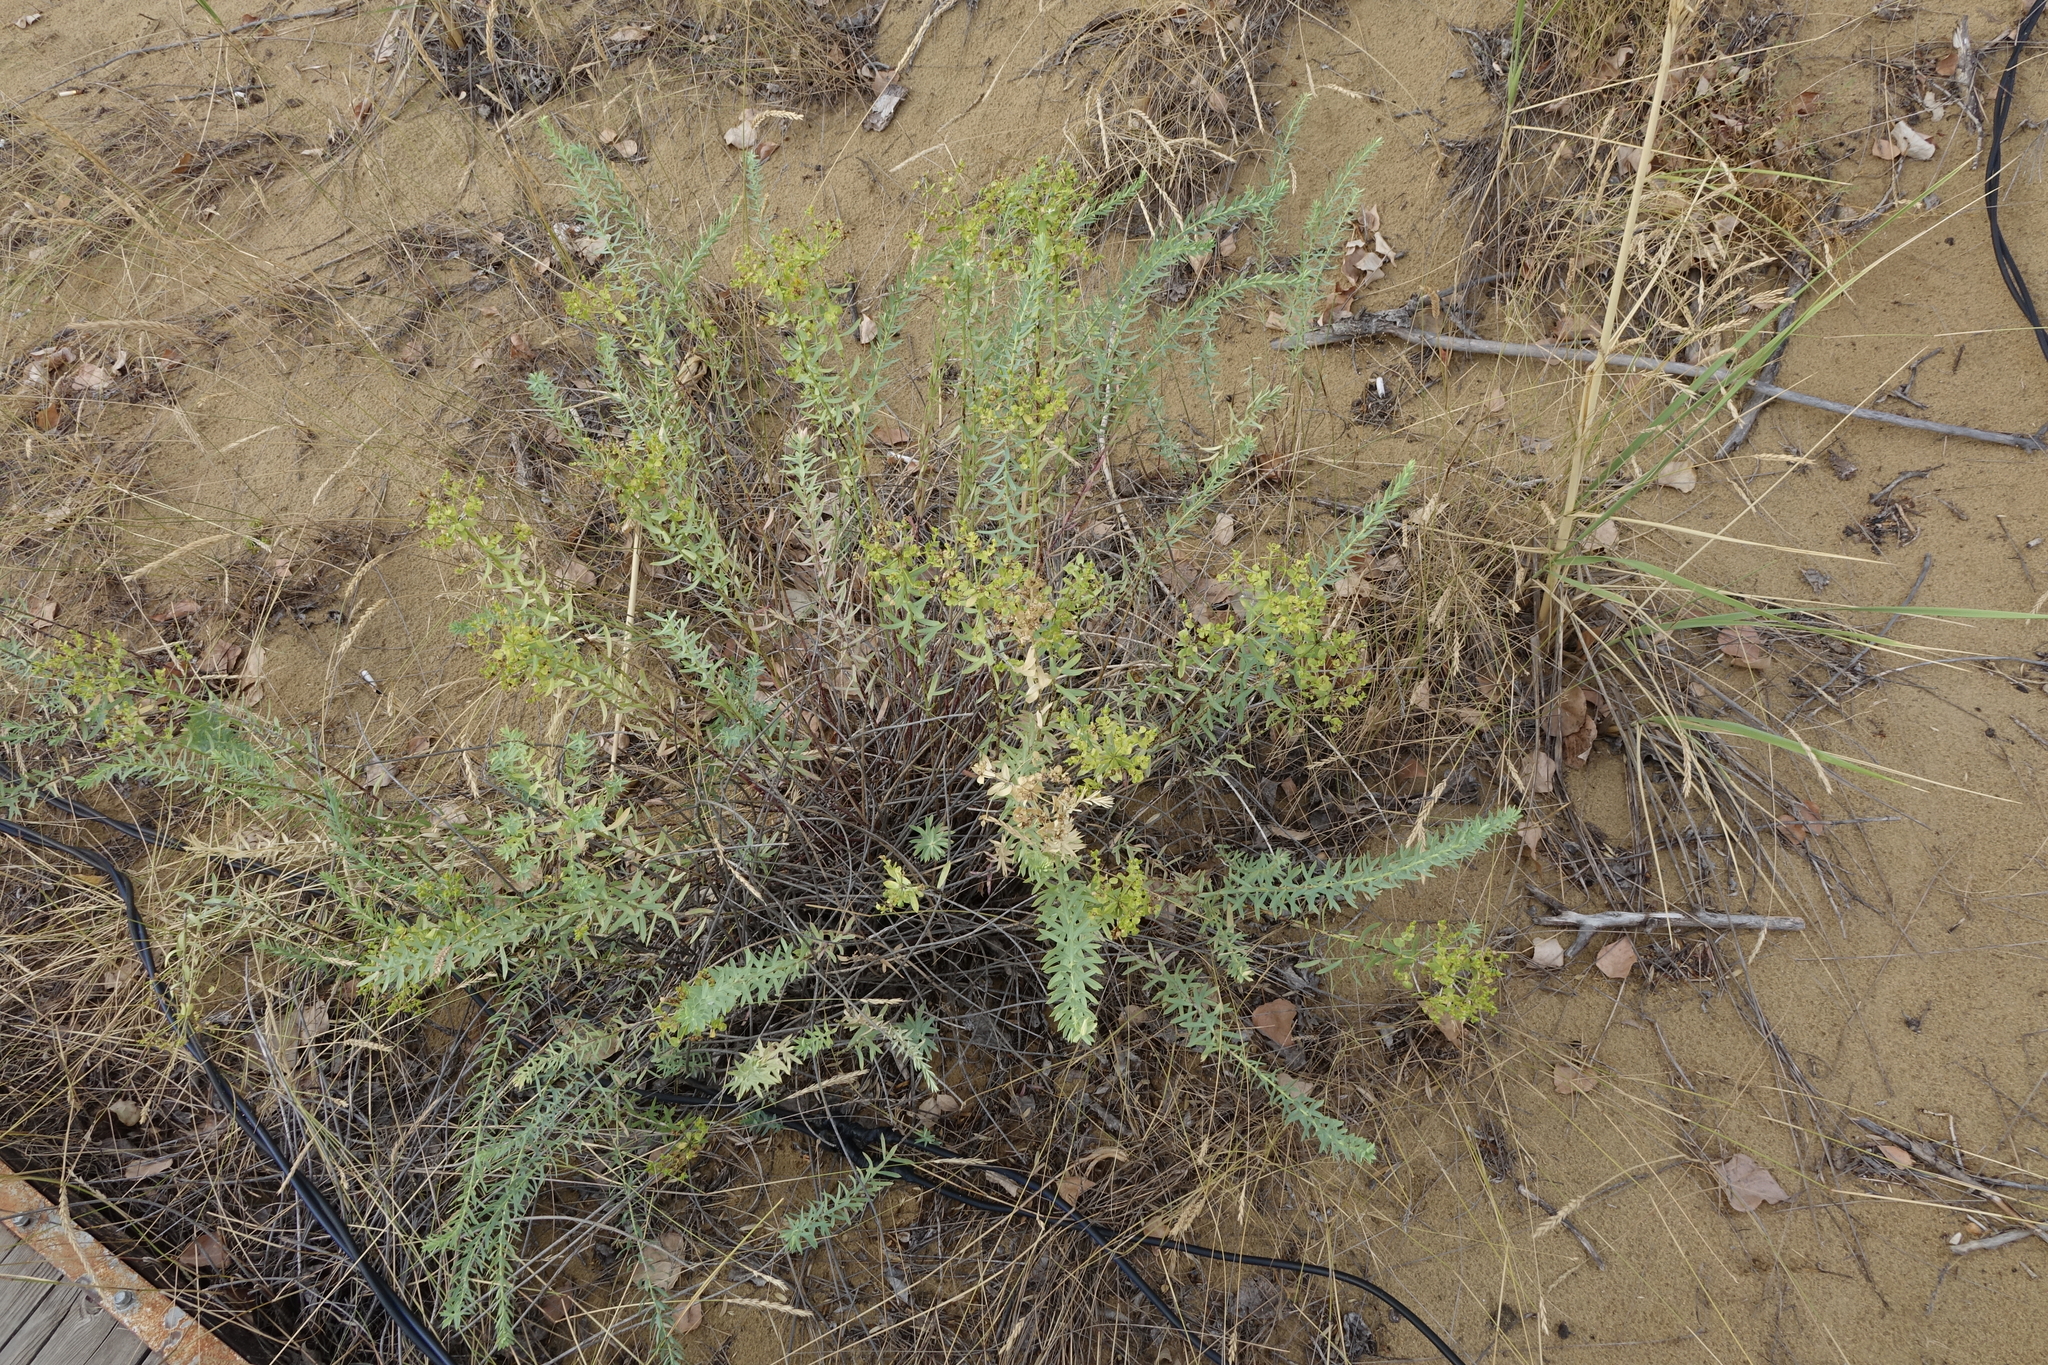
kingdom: Plantae
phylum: Tracheophyta
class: Magnoliopsida
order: Malpighiales
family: Euphorbiaceae
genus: Euphorbia
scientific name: Euphorbia seguieriana
